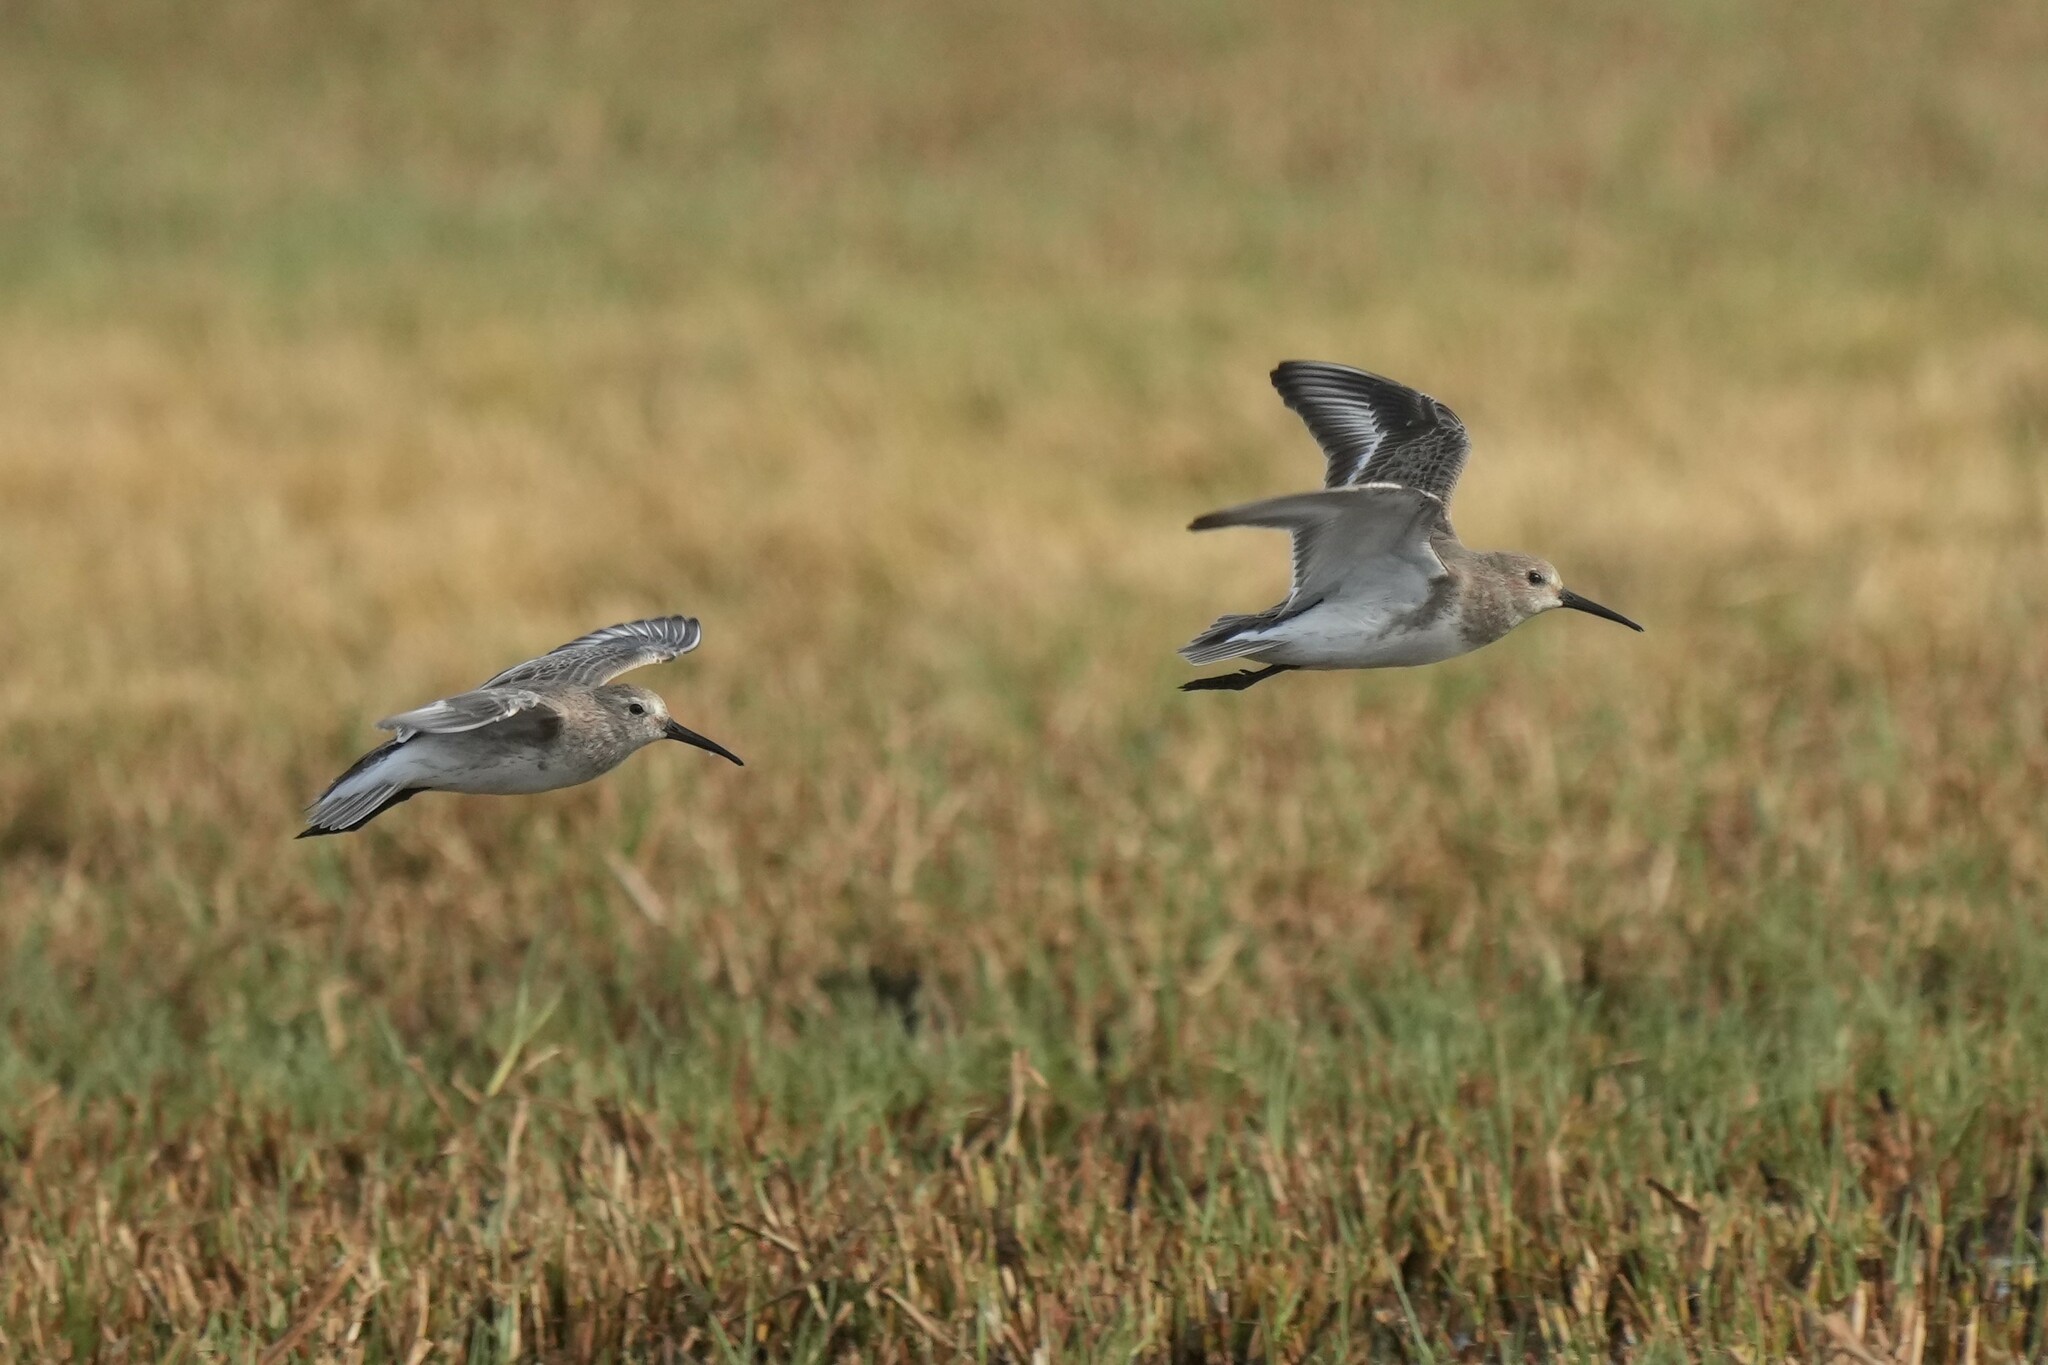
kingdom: Animalia
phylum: Chordata
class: Aves
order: Charadriiformes
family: Scolopacidae
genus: Calidris
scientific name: Calidris alpina
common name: Dunlin
